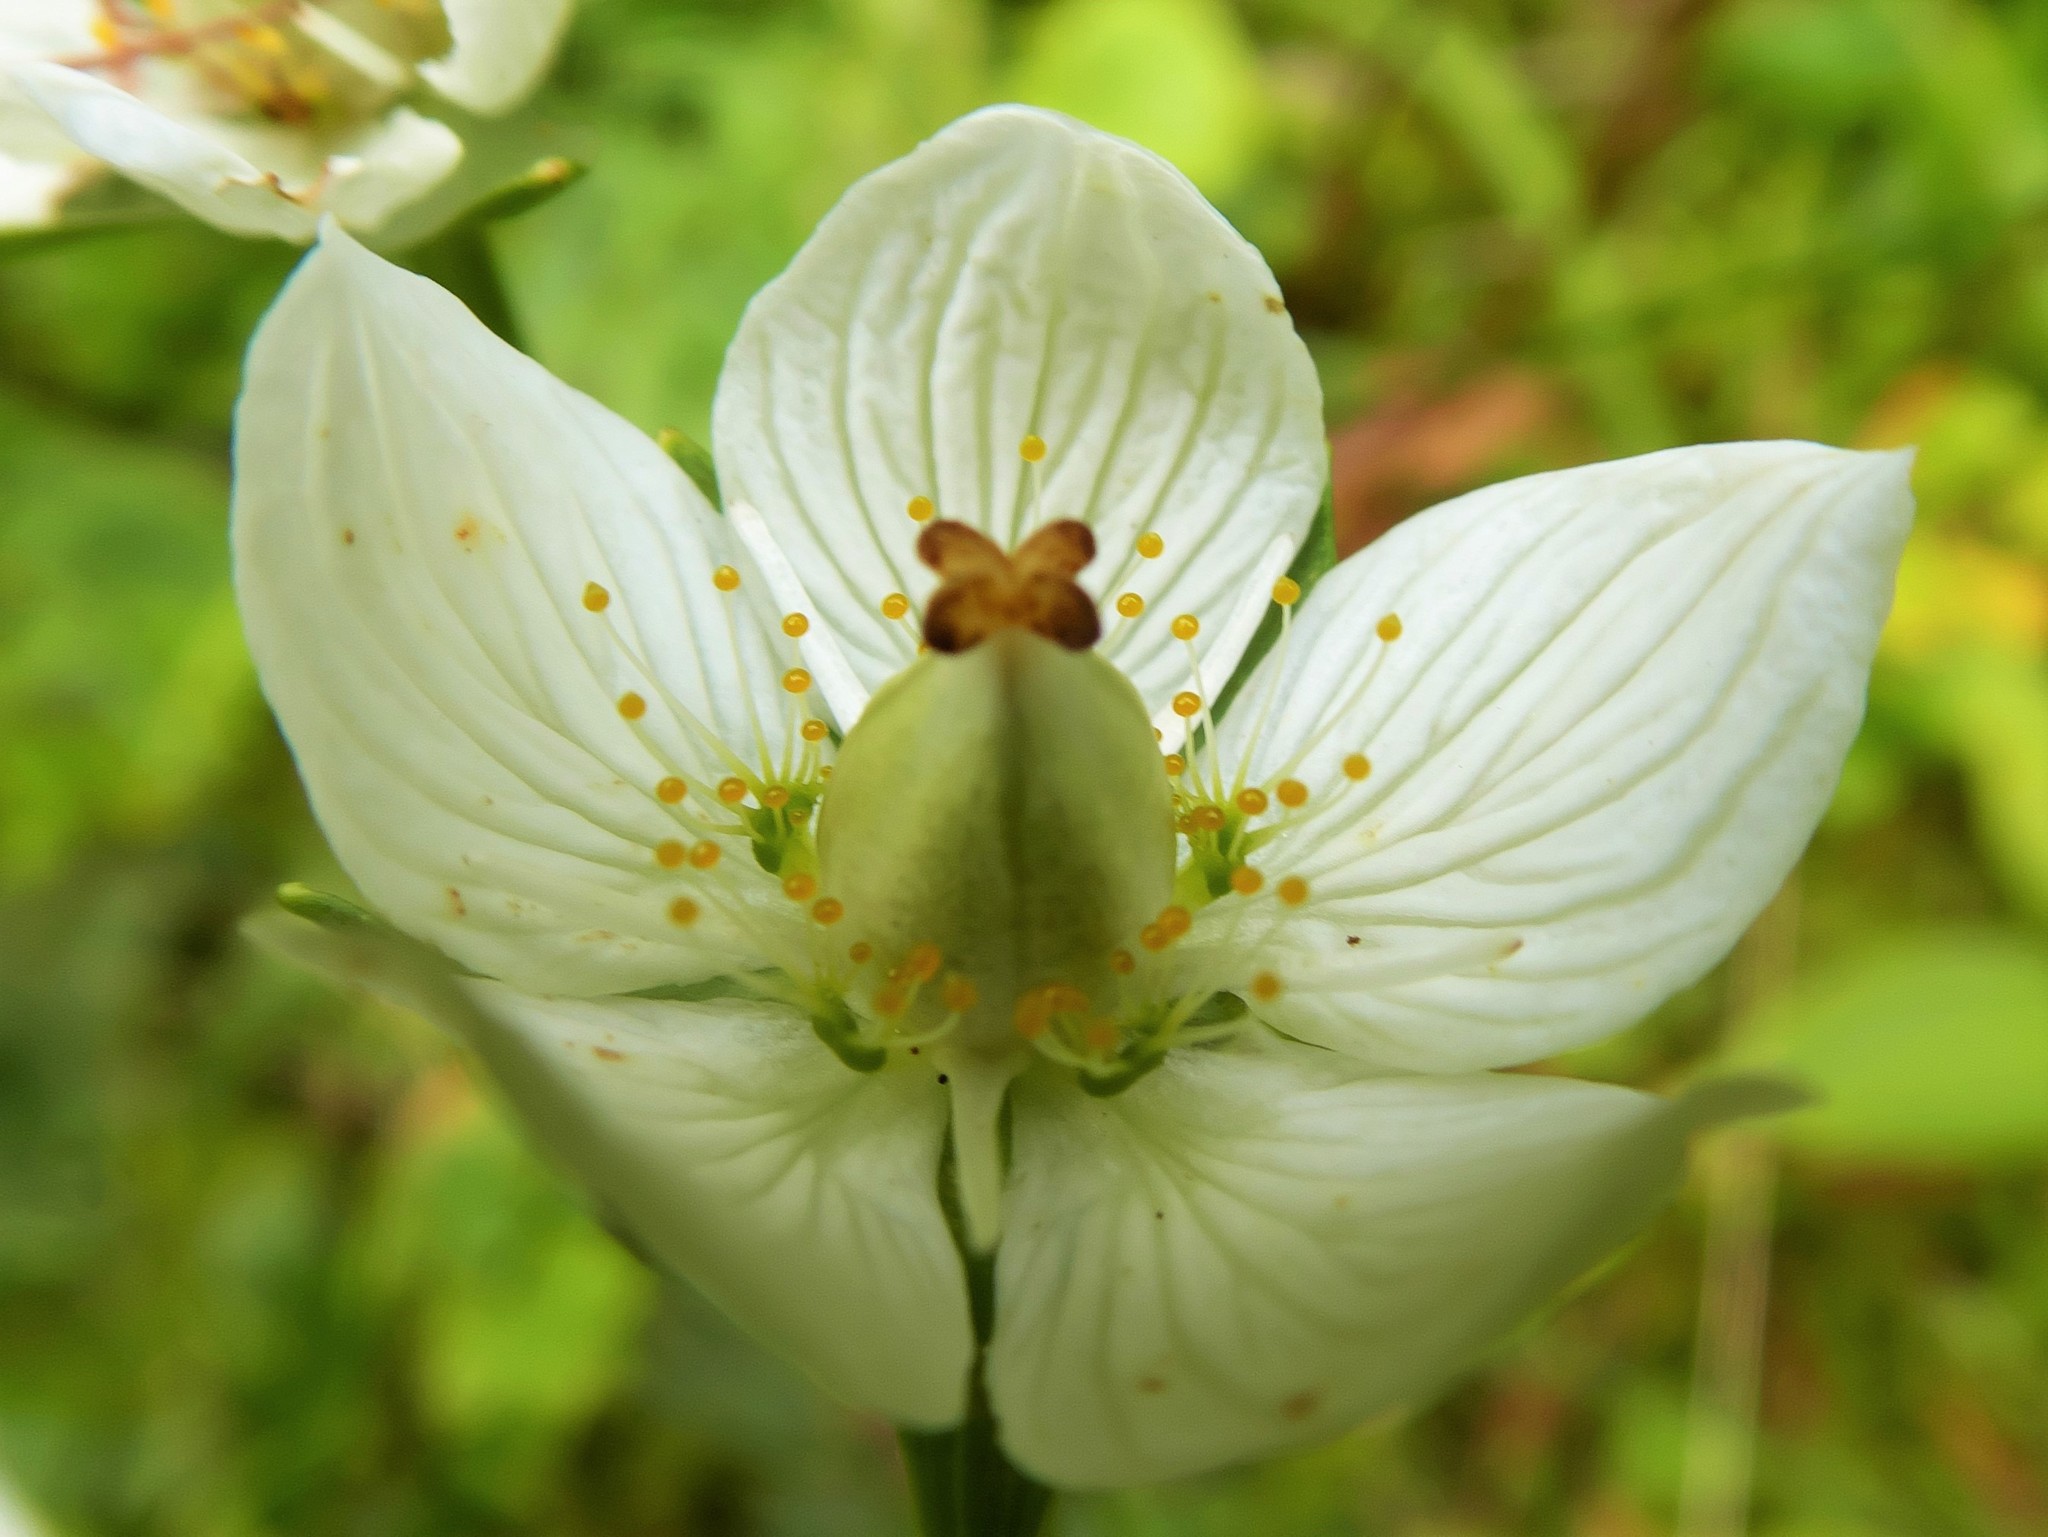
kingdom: Plantae
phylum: Tracheophyta
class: Magnoliopsida
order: Celastrales
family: Parnassiaceae
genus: Parnassia
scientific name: Parnassia palustris
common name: Grass-of-parnassus
